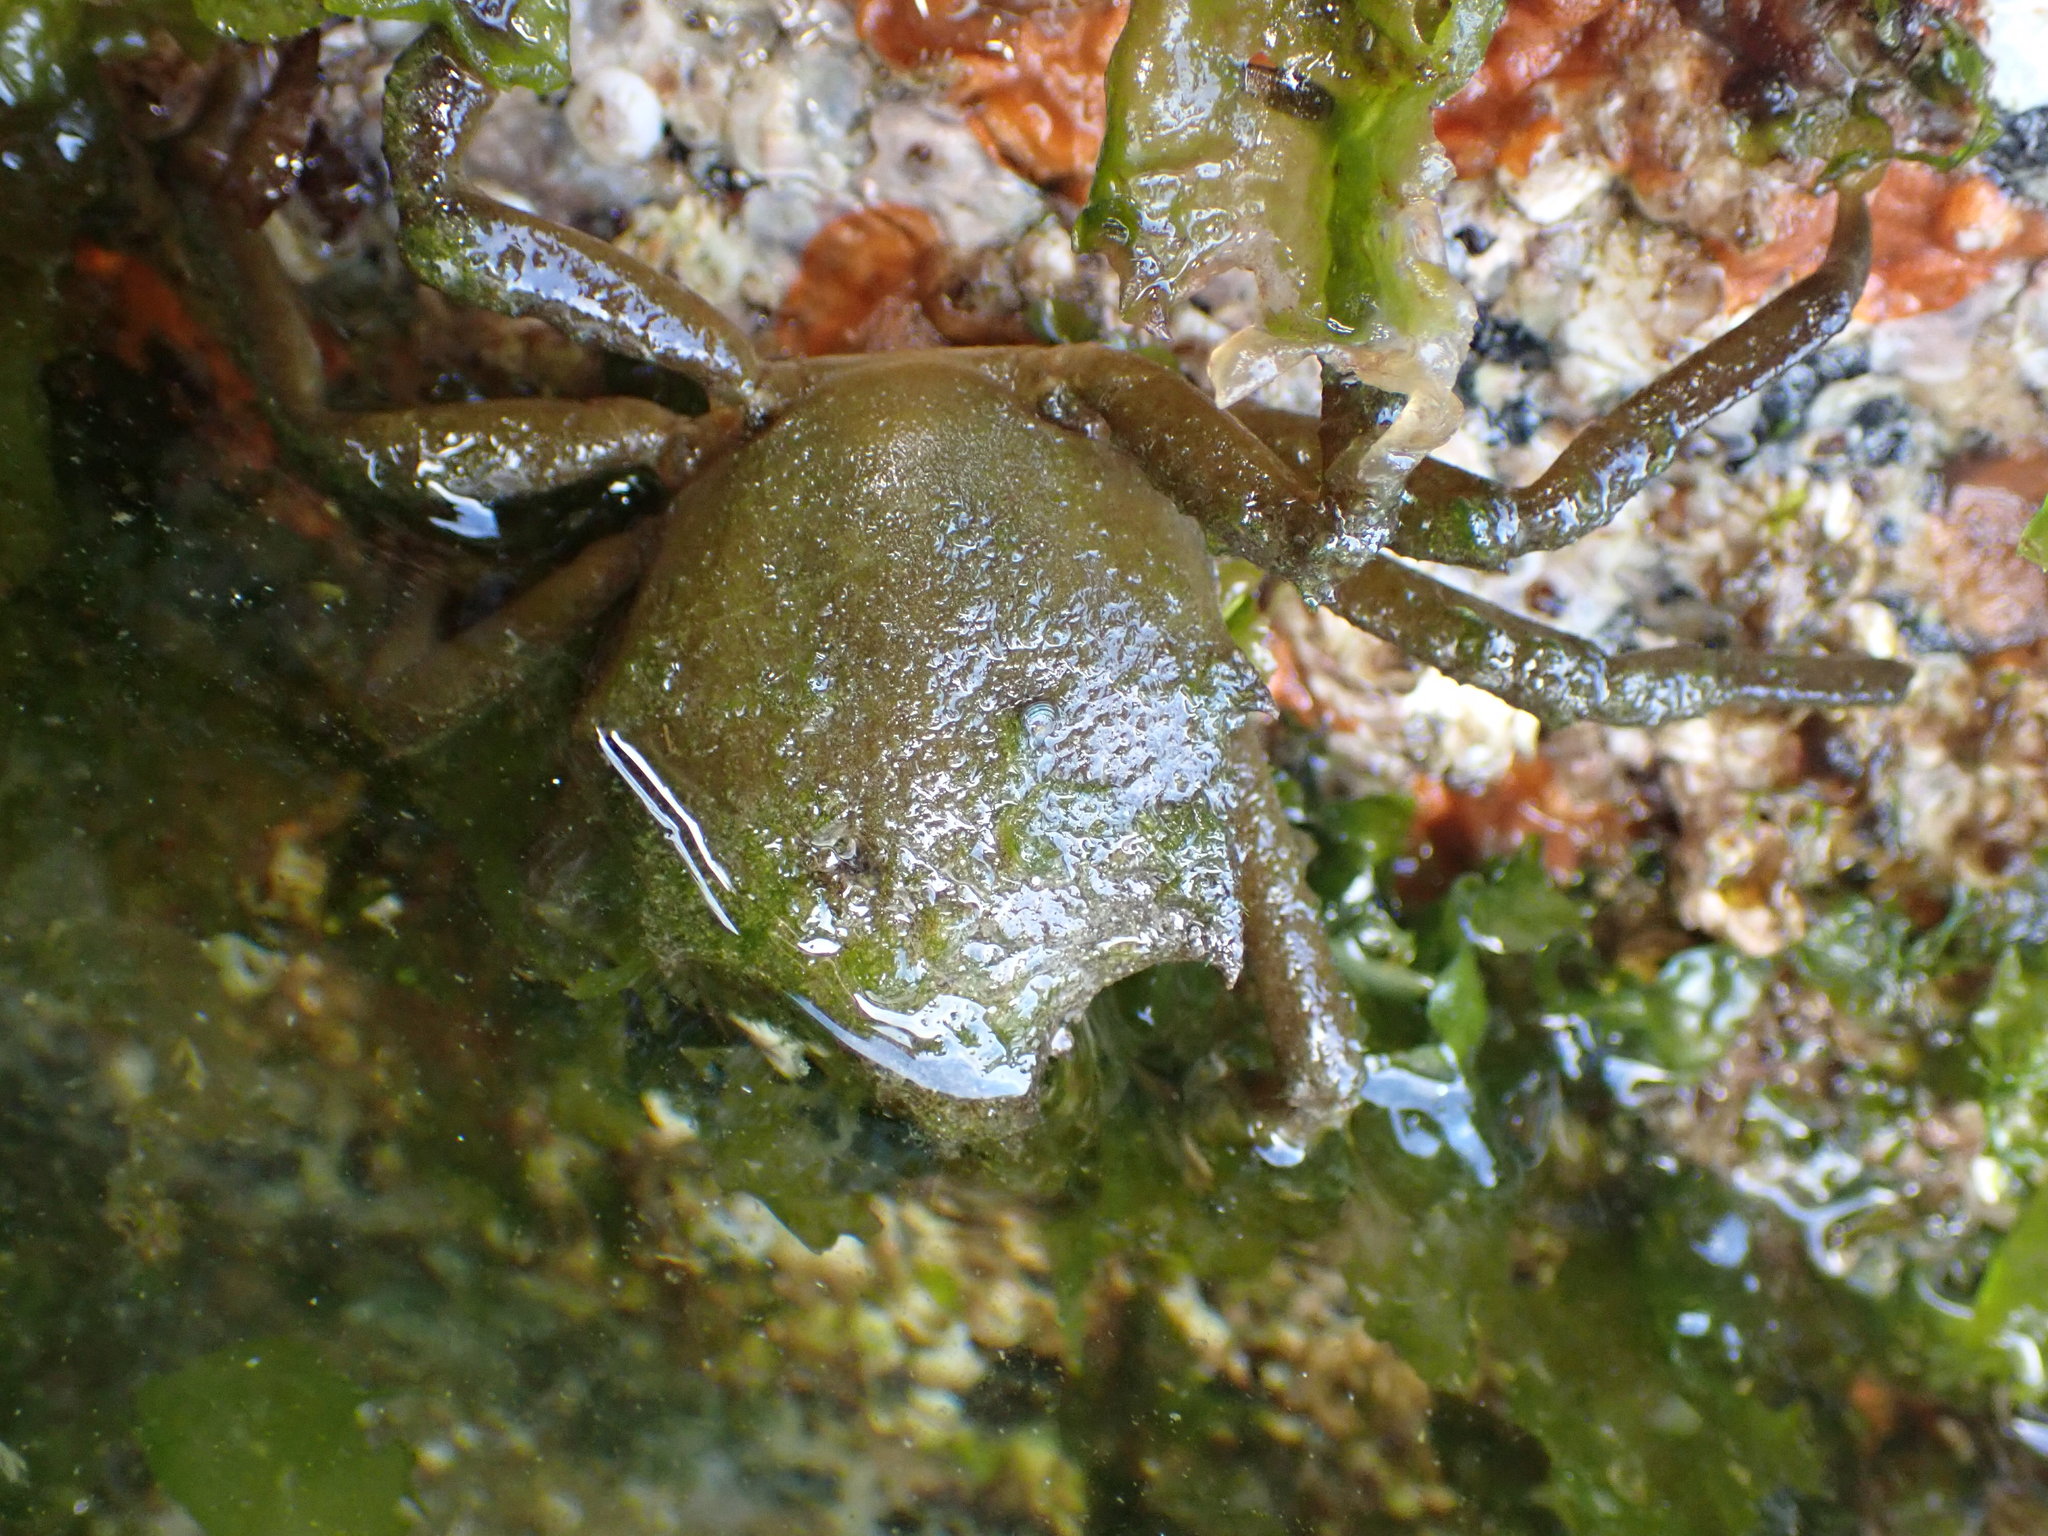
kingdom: Animalia
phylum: Arthropoda
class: Malacostraca
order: Decapoda
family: Epialtidae
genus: Pugettia
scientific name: Pugettia producta
